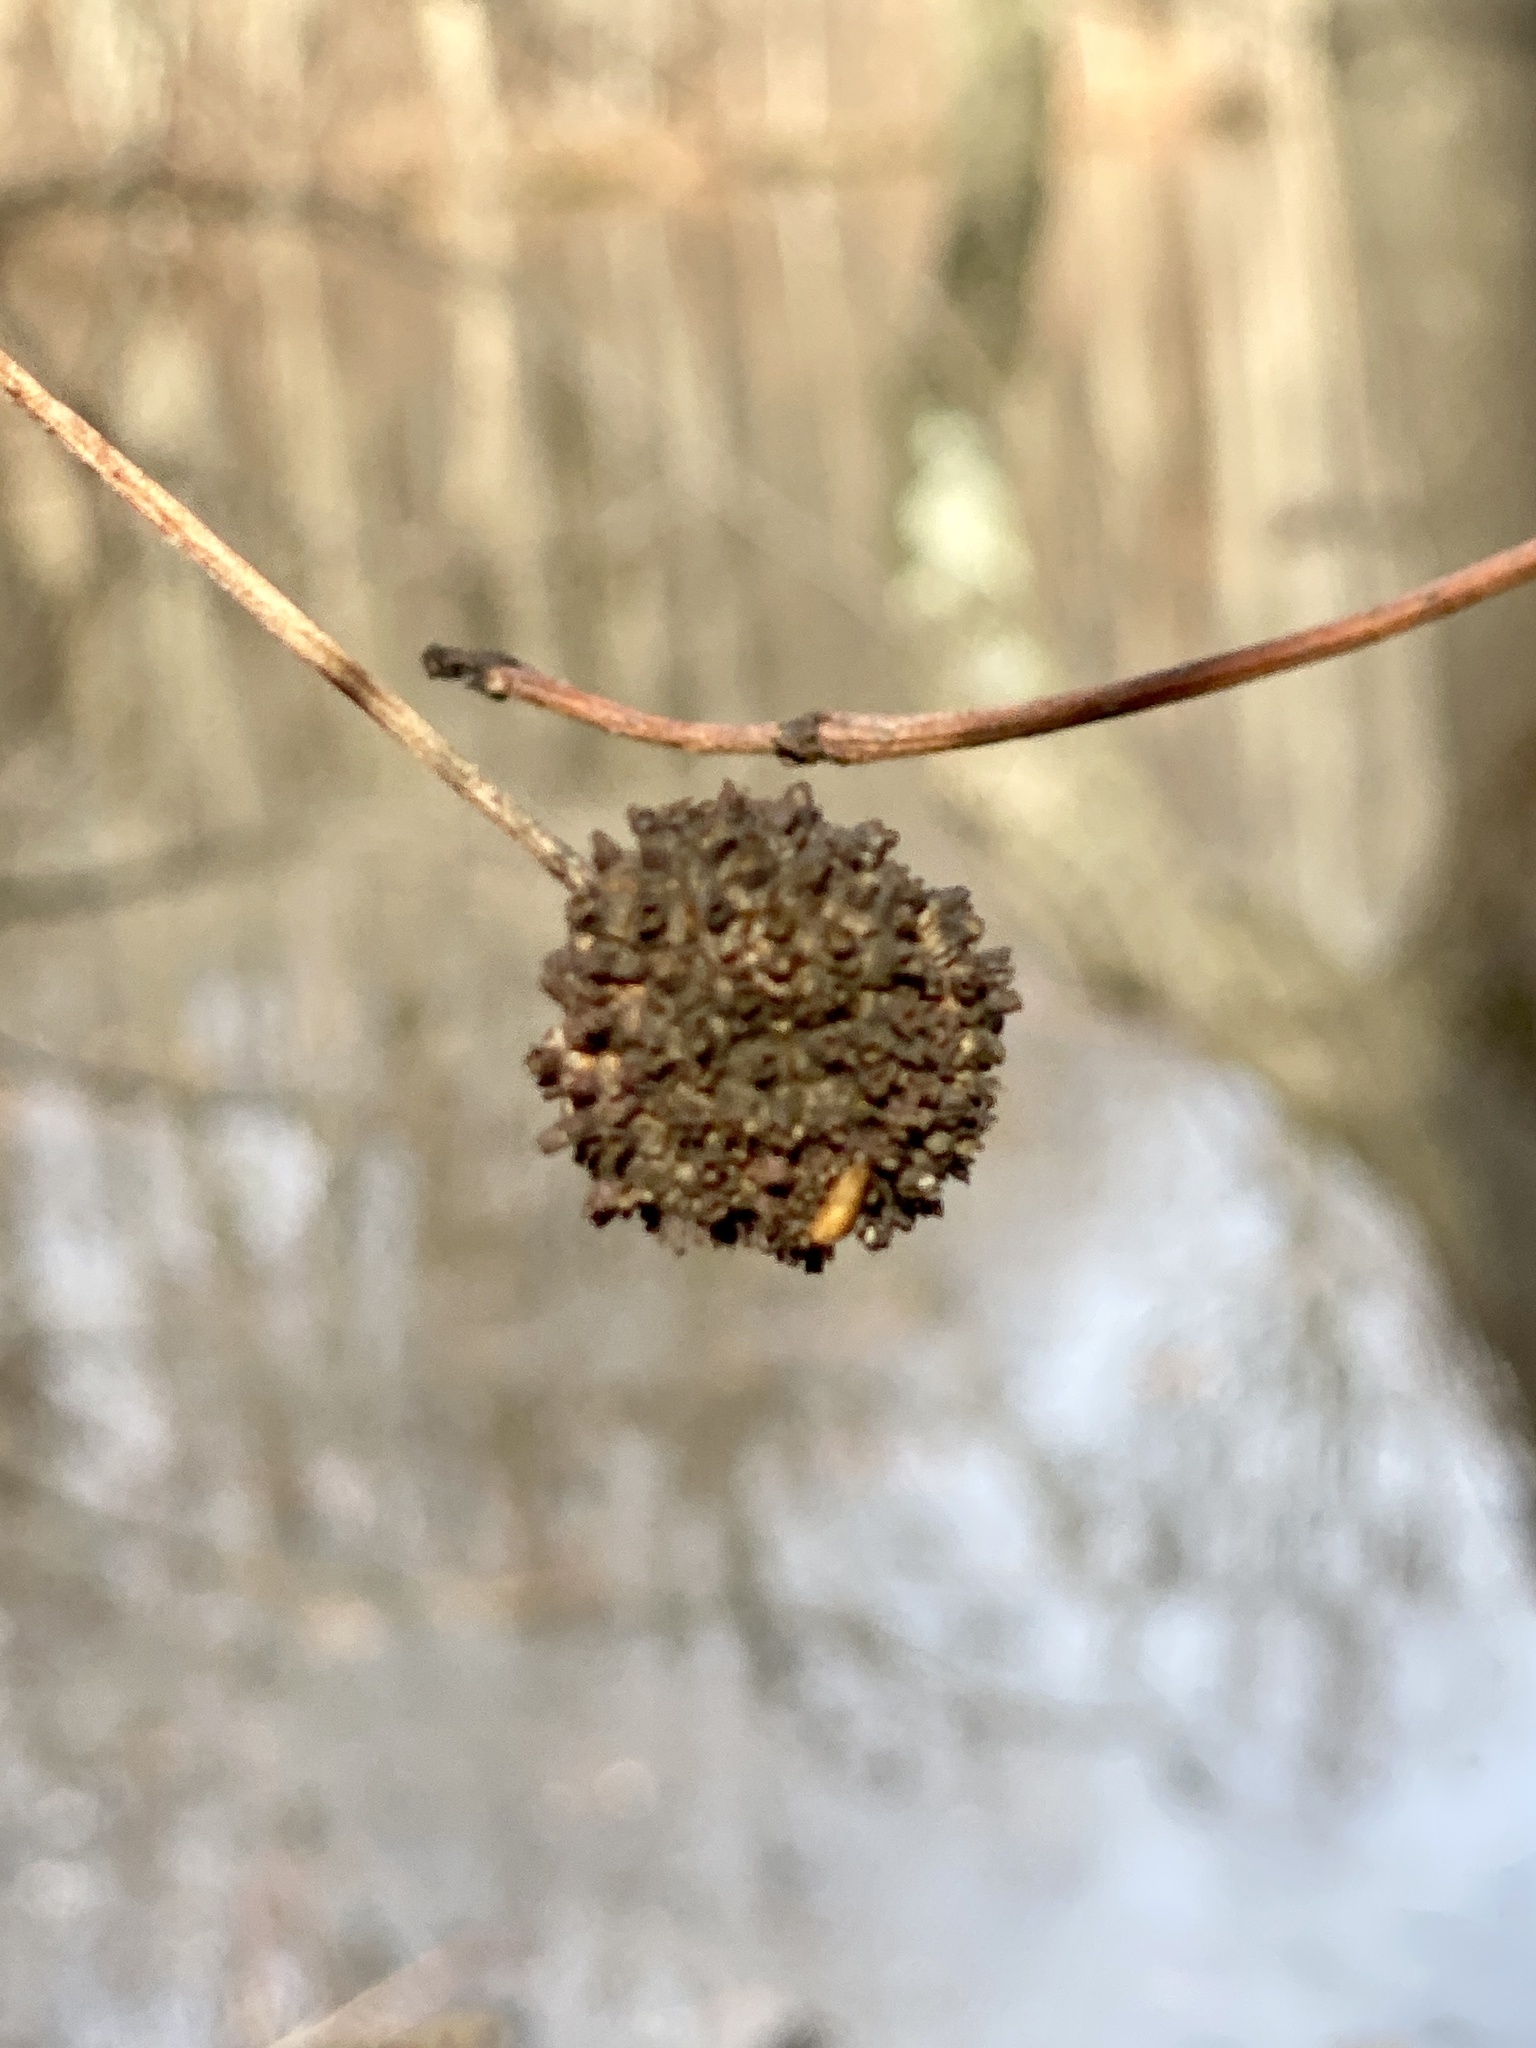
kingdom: Plantae
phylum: Tracheophyta
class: Magnoliopsida
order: Gentianales
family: Rubiaceae
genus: Cephalanthus
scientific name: Cephalanthus occidentalis
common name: Button-willow
